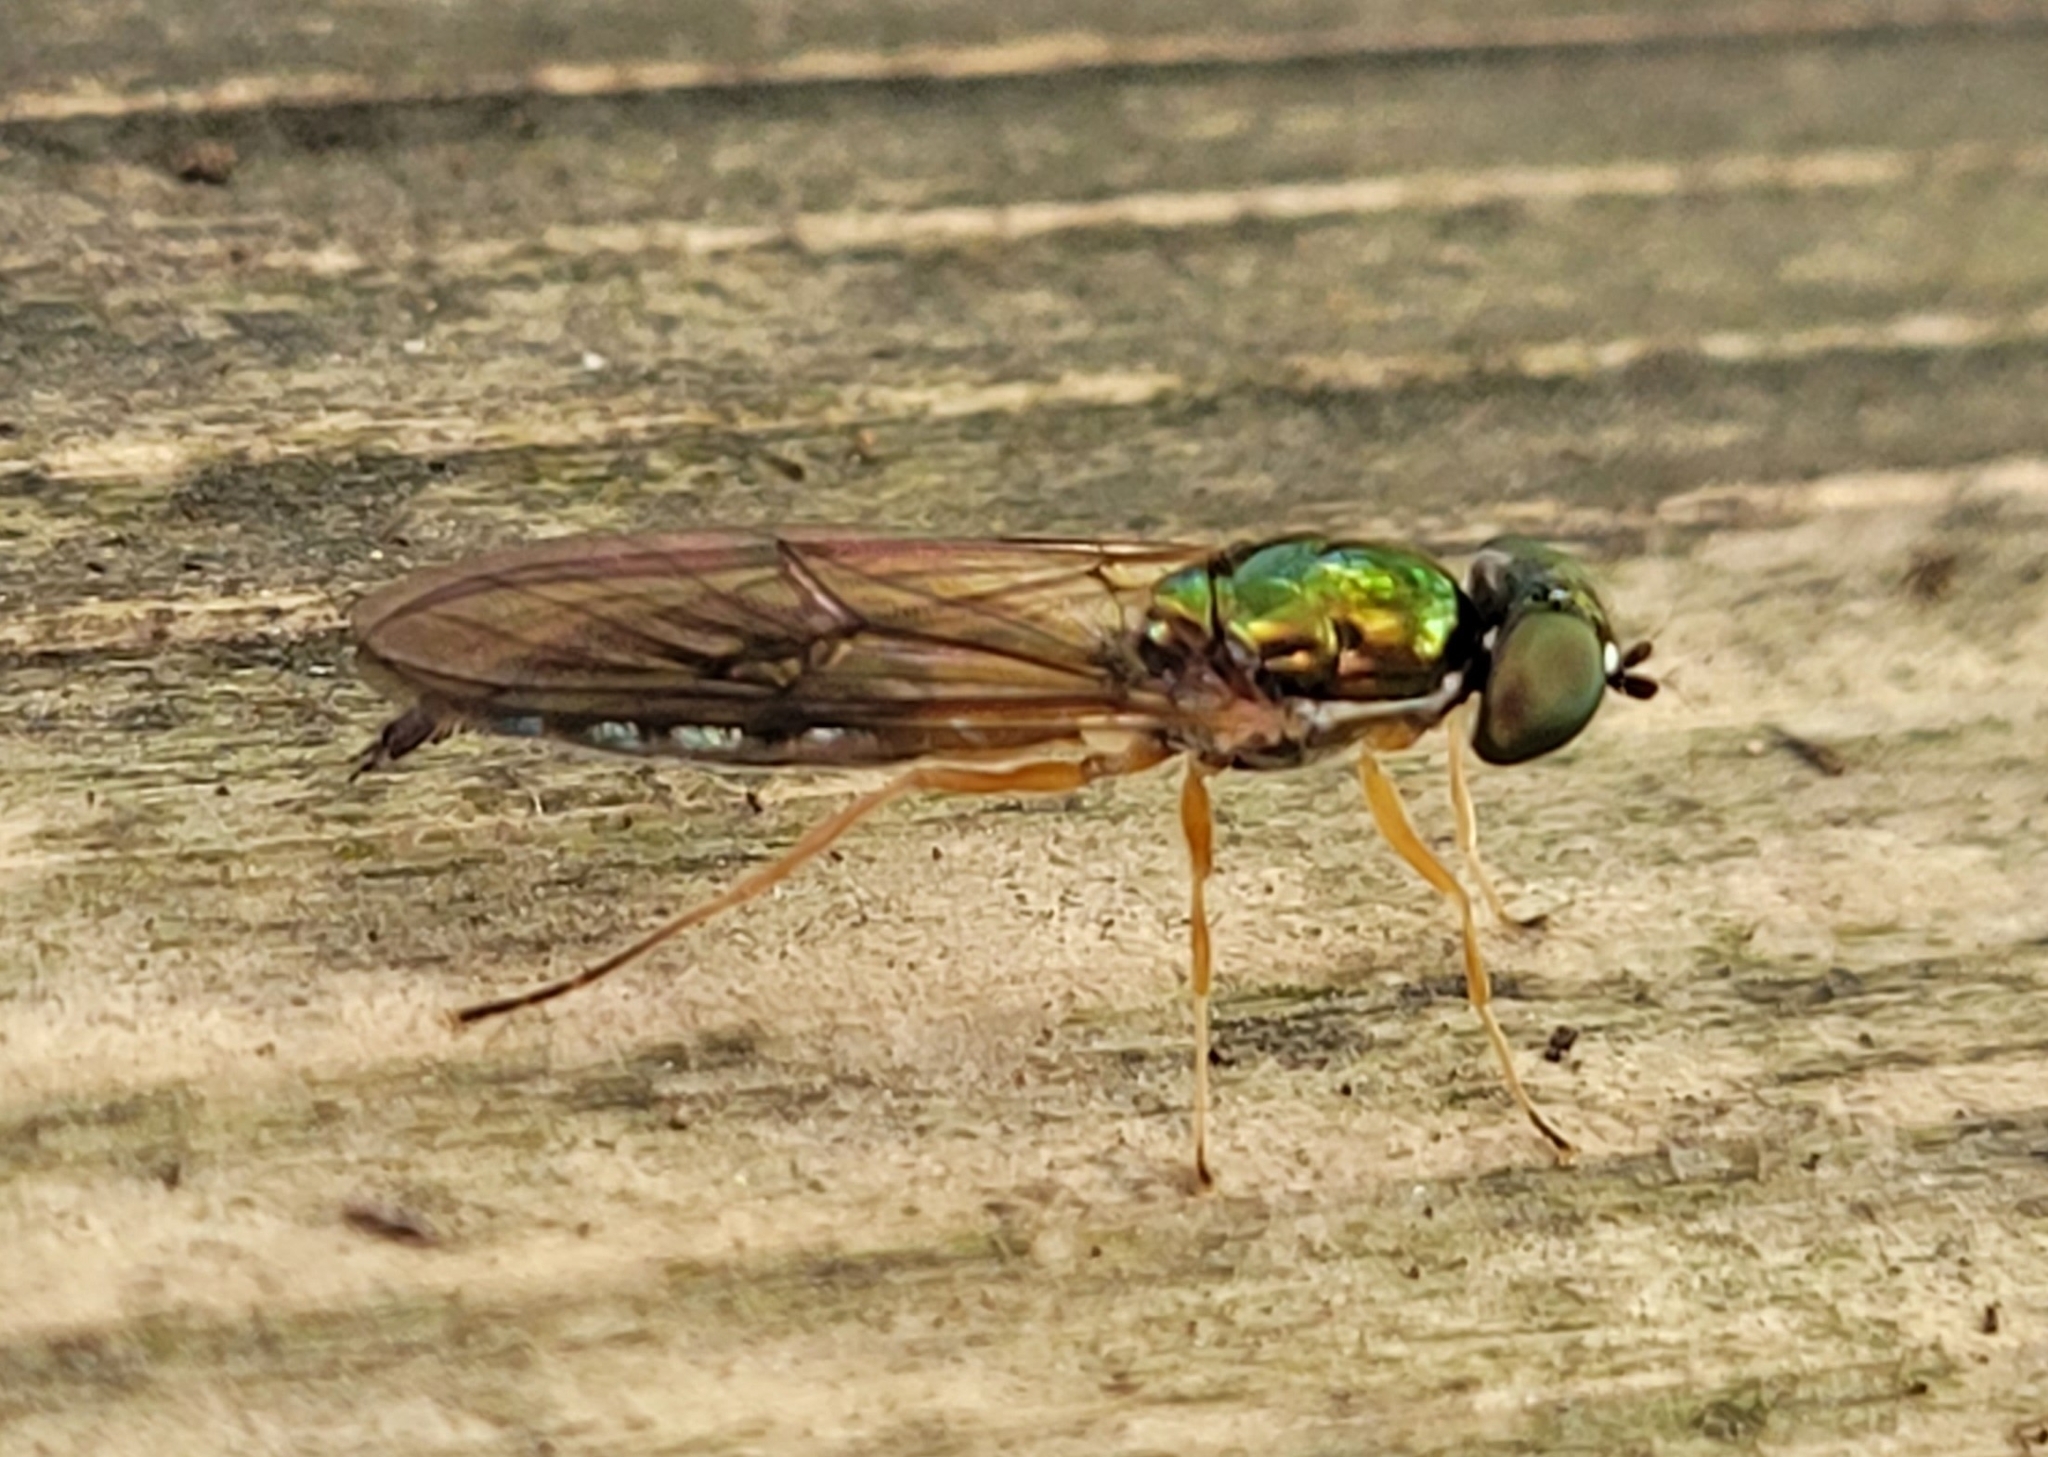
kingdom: Animalia
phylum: Arthropoda
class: Insecta
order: Diptera
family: Stratiomyidae
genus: Sargus
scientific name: Sargus bipunctatus
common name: Twin-spot centurion
